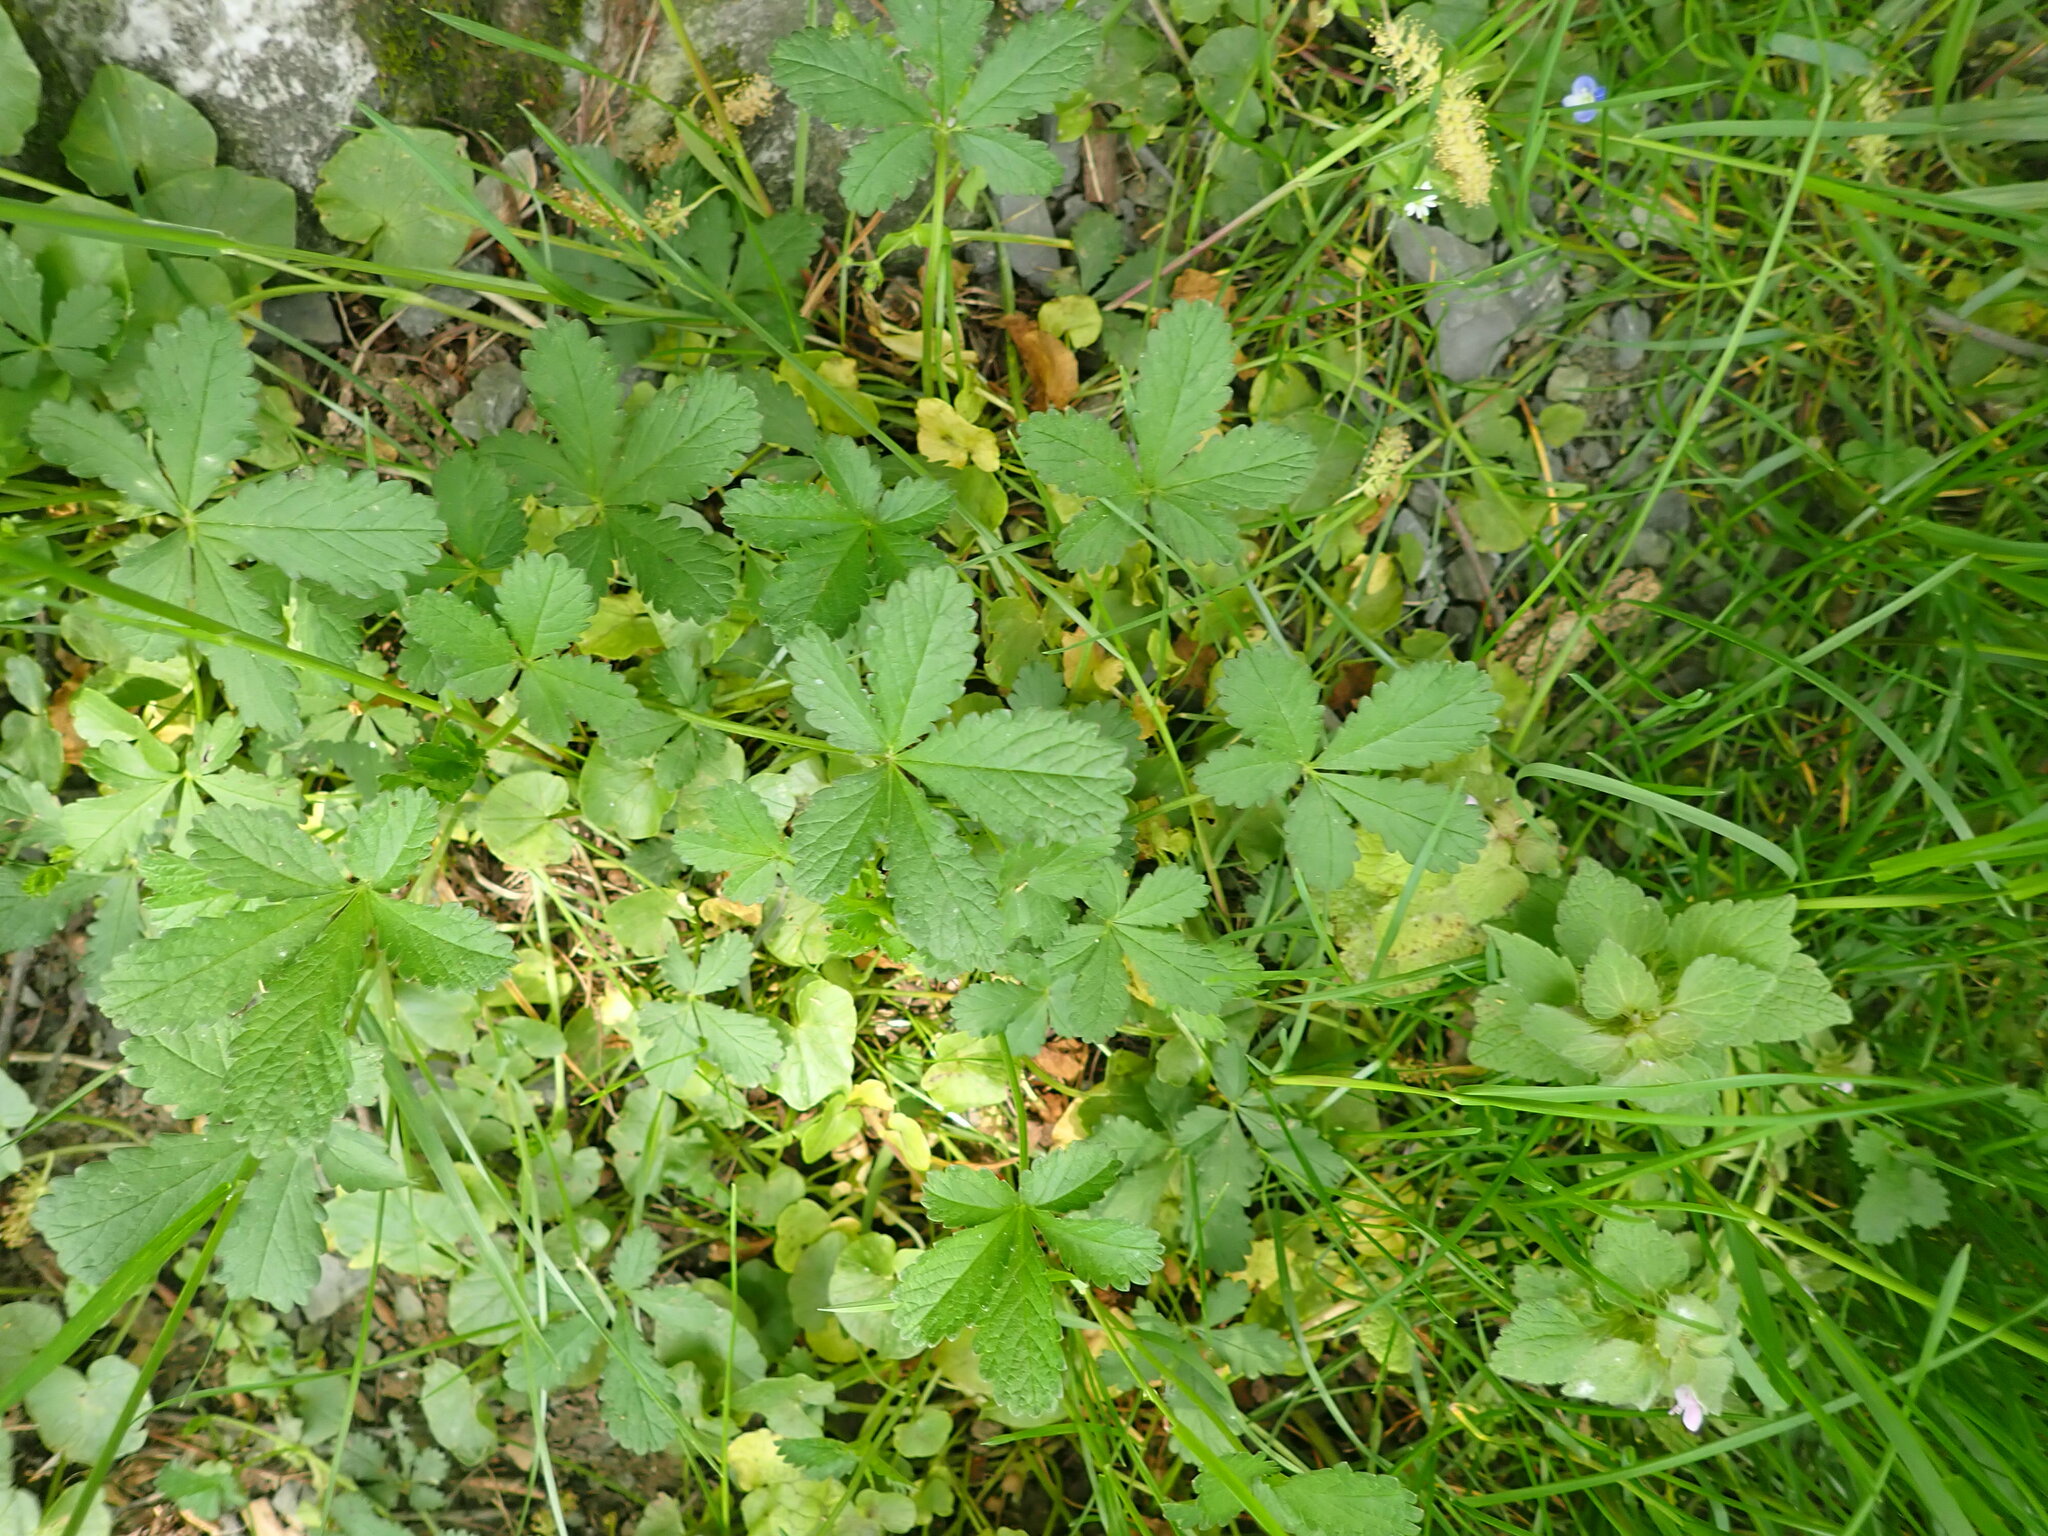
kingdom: Plantae
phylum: Tracheophyta
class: Magnoliopsida
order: Rosales
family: Rosaceae
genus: Potentilla
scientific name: Potentilla reptans
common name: Creeping cinquefoil
